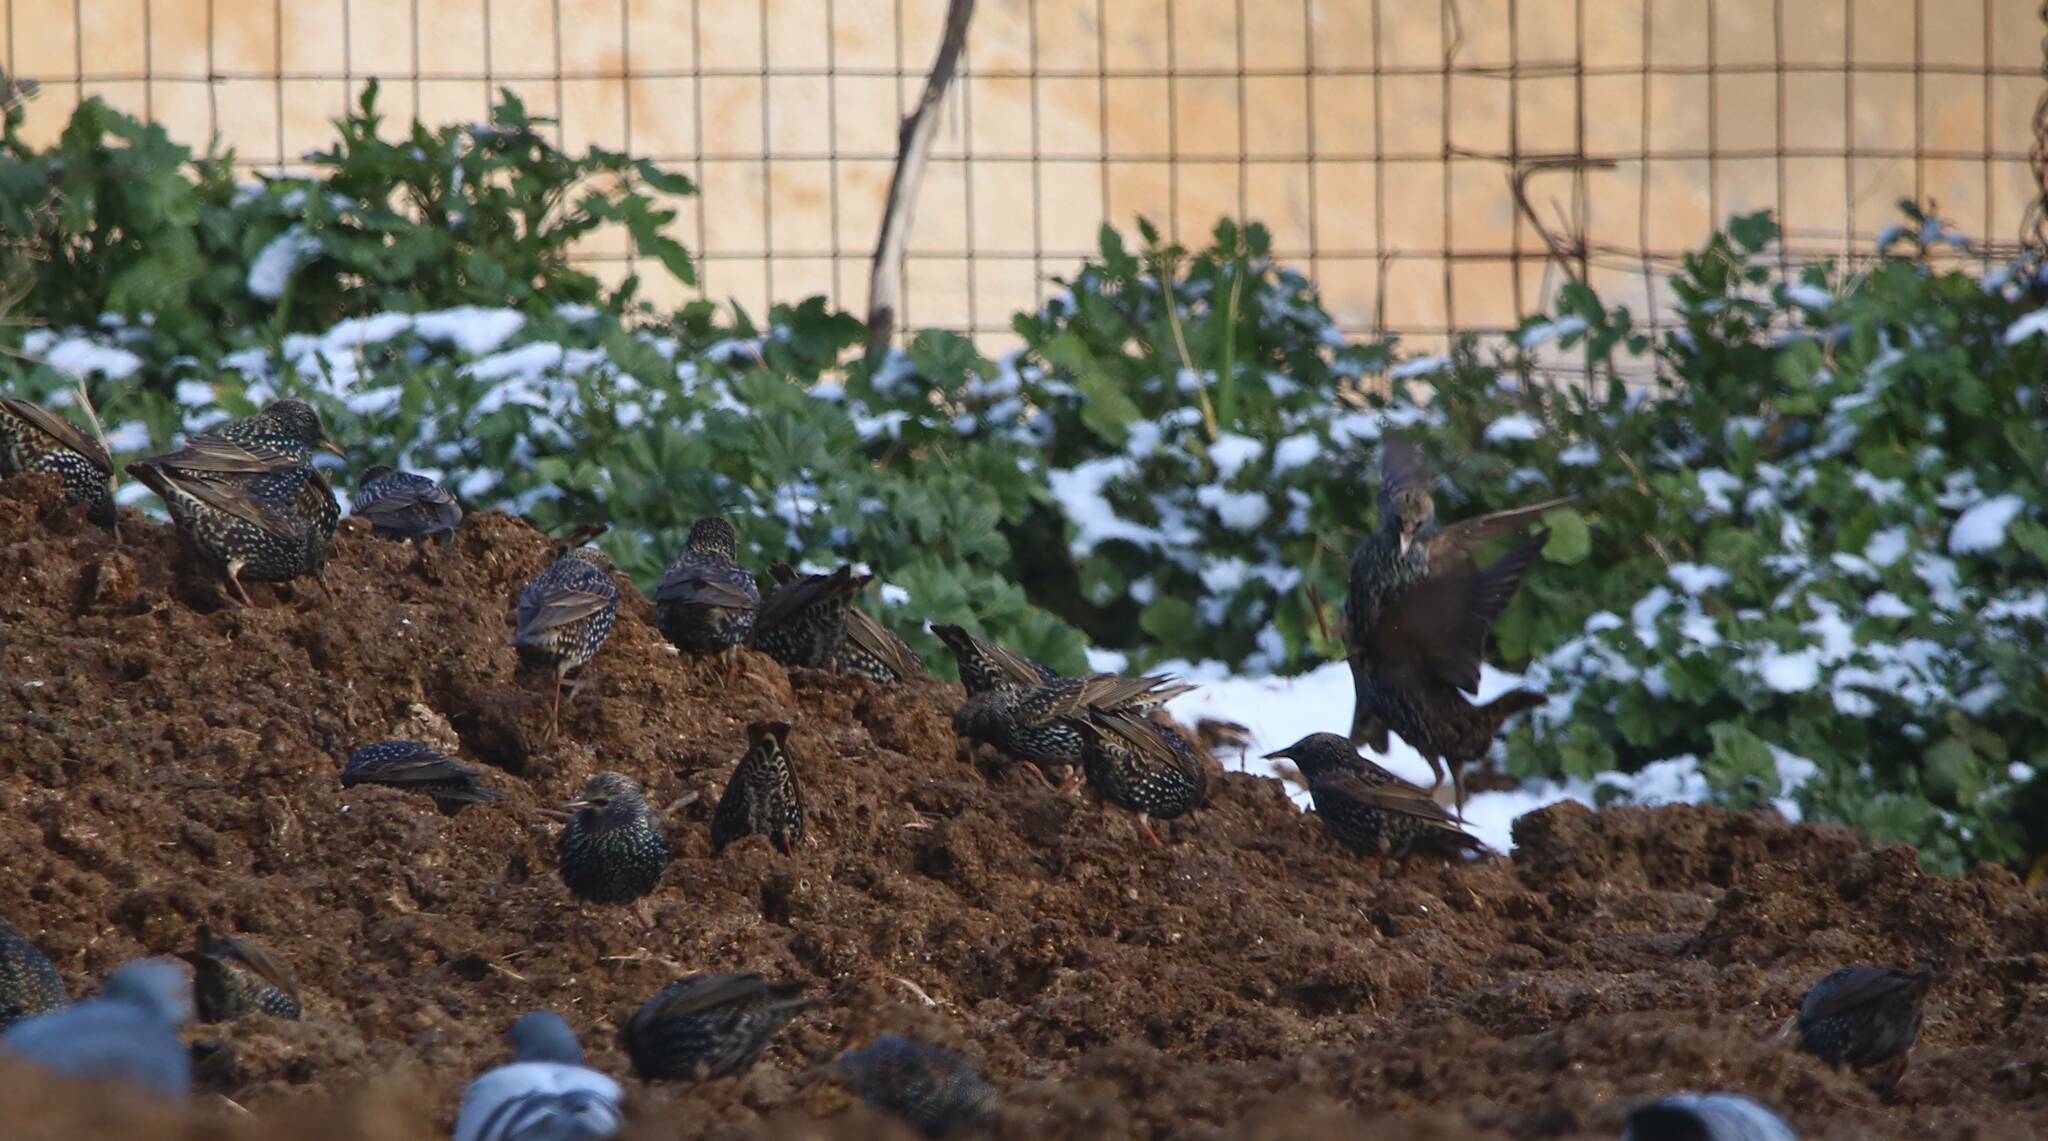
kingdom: Animalia
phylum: Chordata
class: Aves
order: Passeriformes
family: Sturnidae
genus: Sturnus
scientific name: Sturnus vulgaris
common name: Common starling
